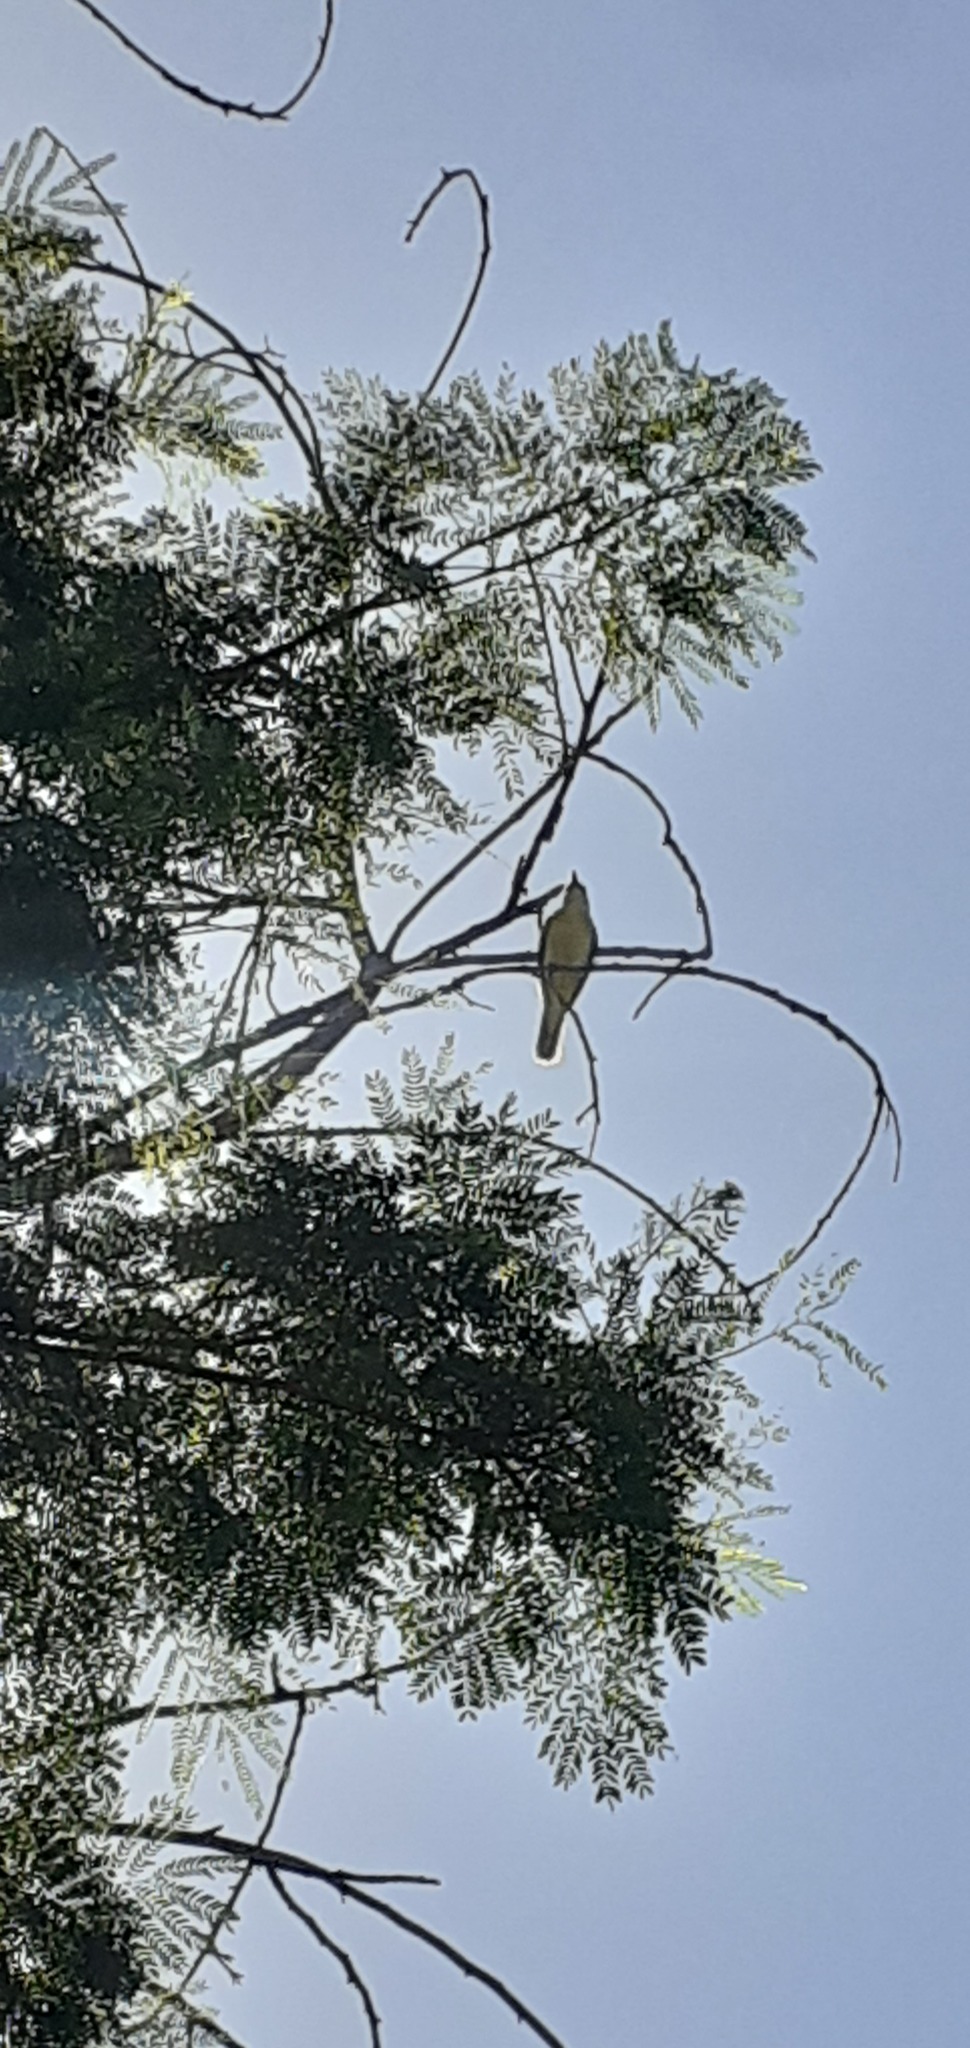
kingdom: Animalia
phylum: Chordata
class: Aves
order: Passeriformes
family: Tyrannidae
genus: Pitangus
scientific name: Pitangus sulphuratus
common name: Great kiskadee
